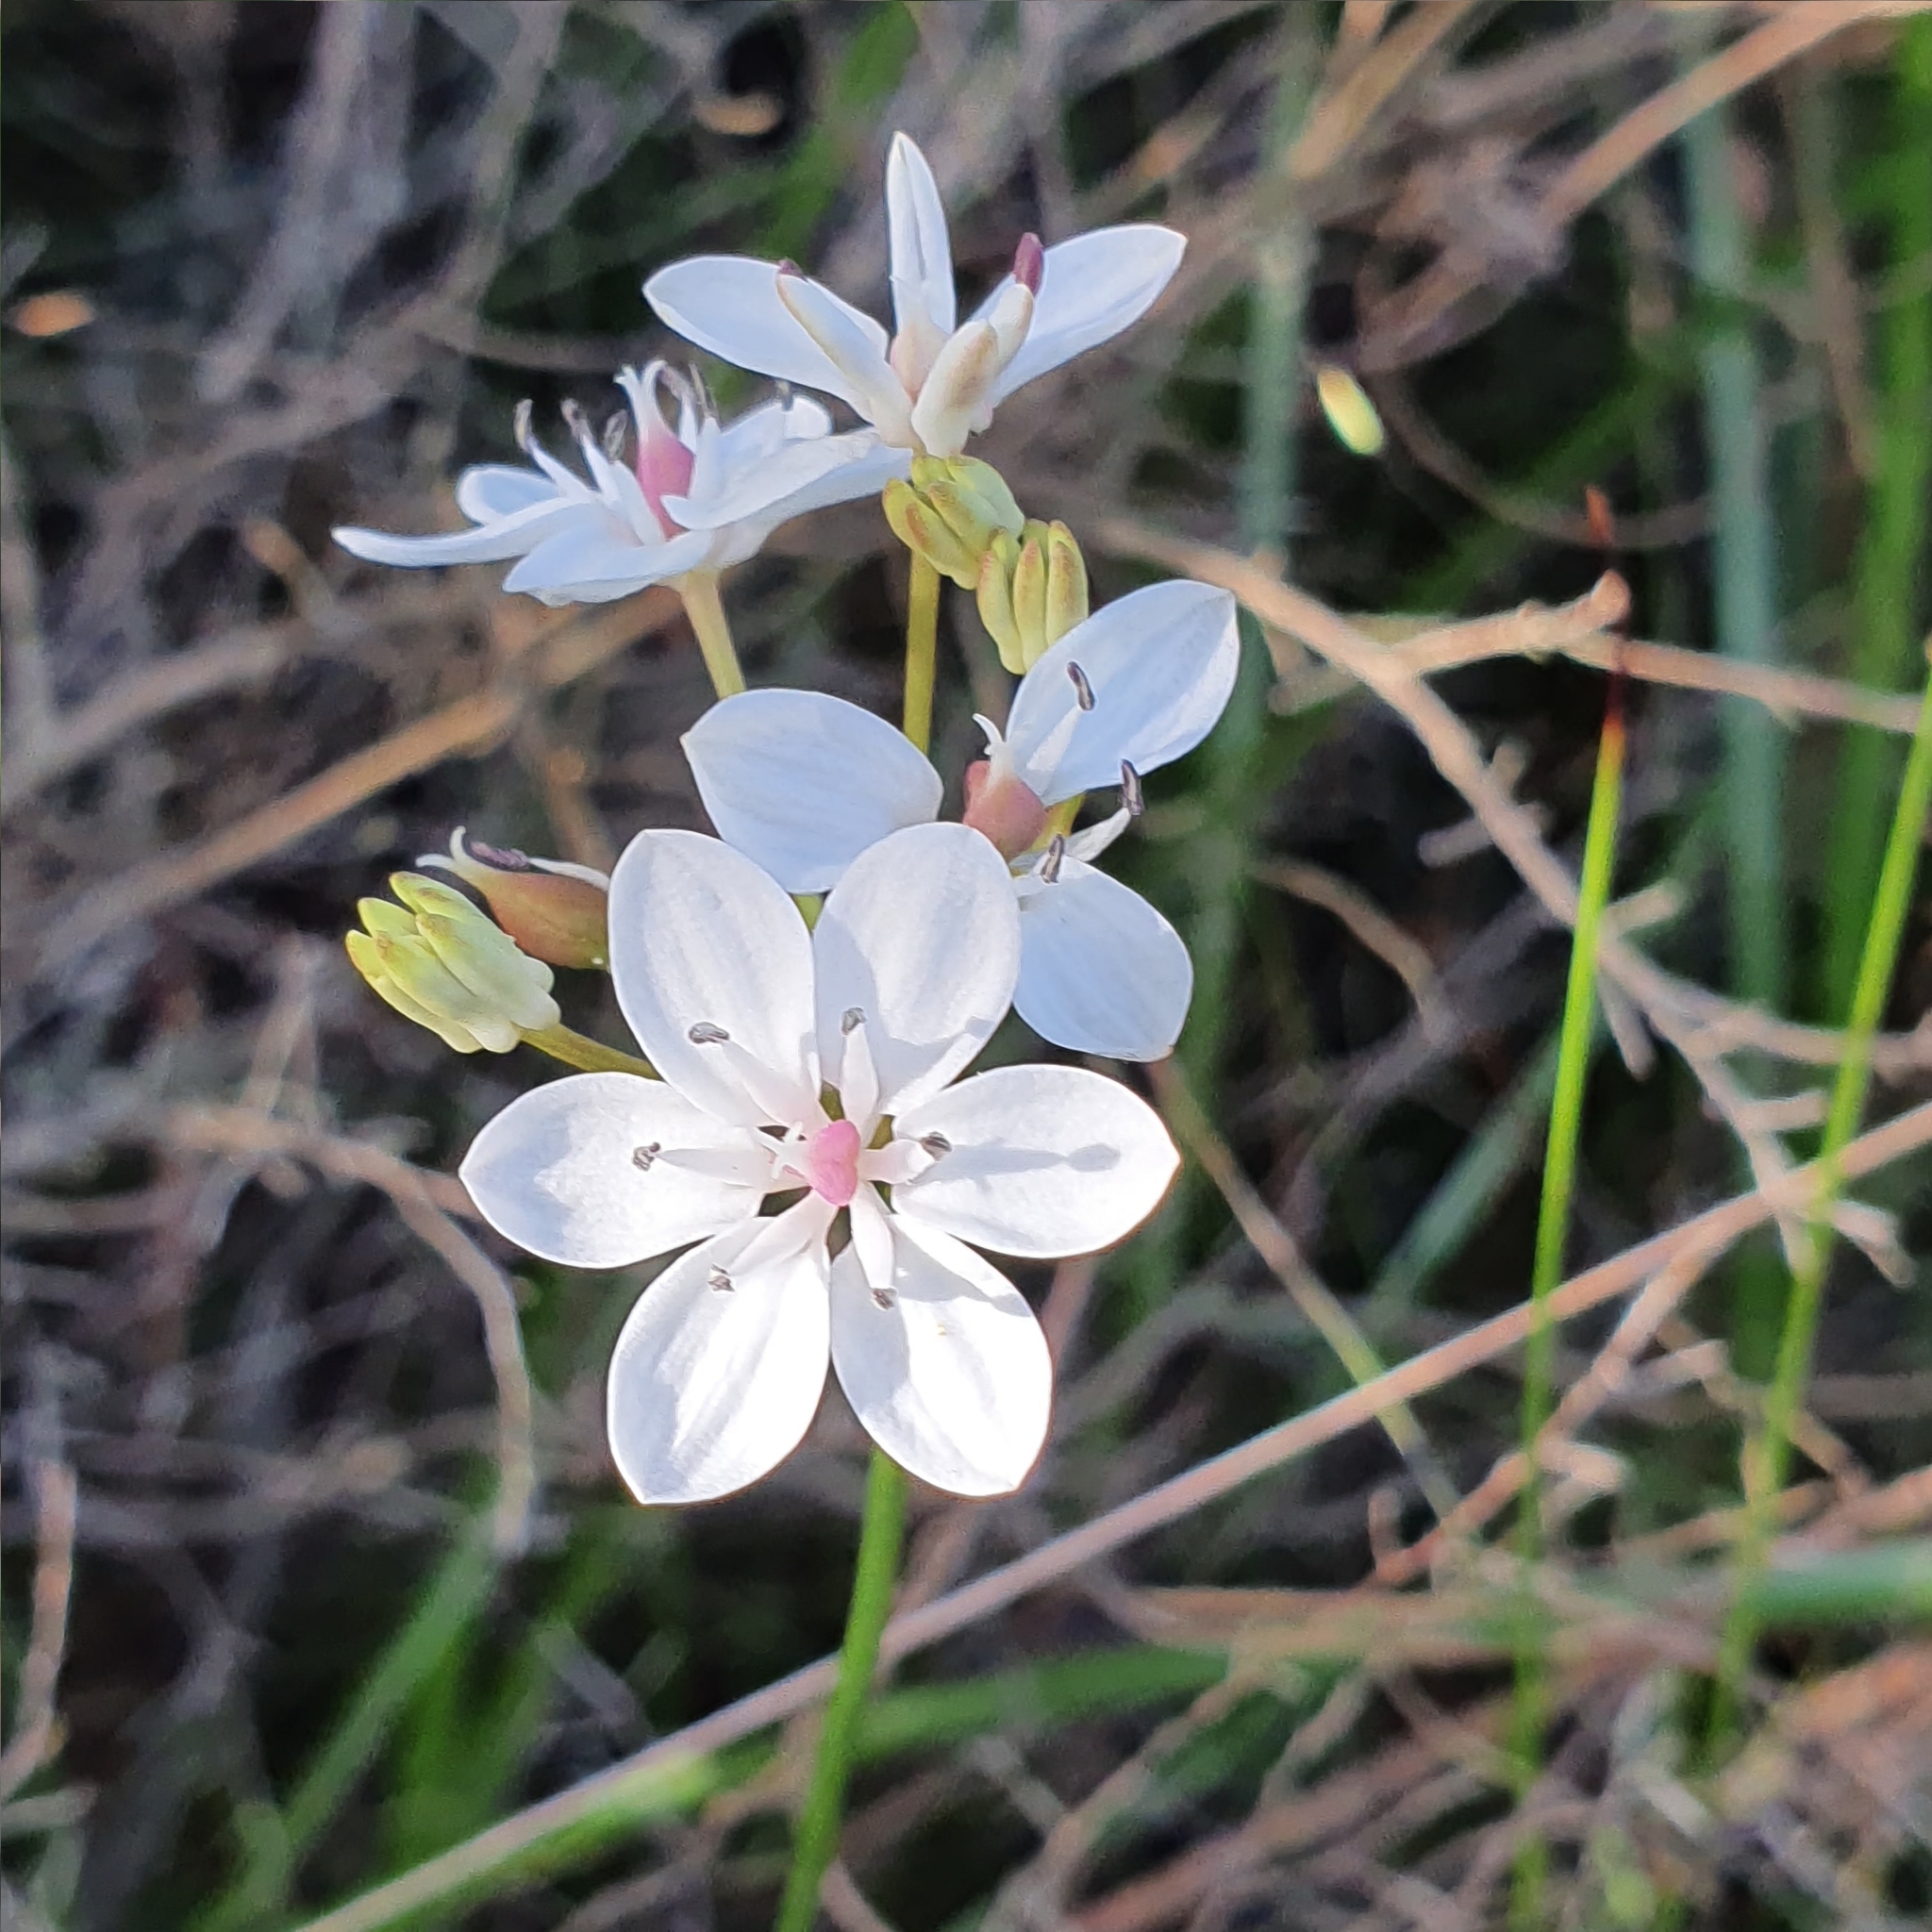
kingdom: Plantae
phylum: Tracheophyta
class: Liliopsida
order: Liliales
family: Colchicaceae
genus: Burchardia
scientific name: Burchardia umbellata
